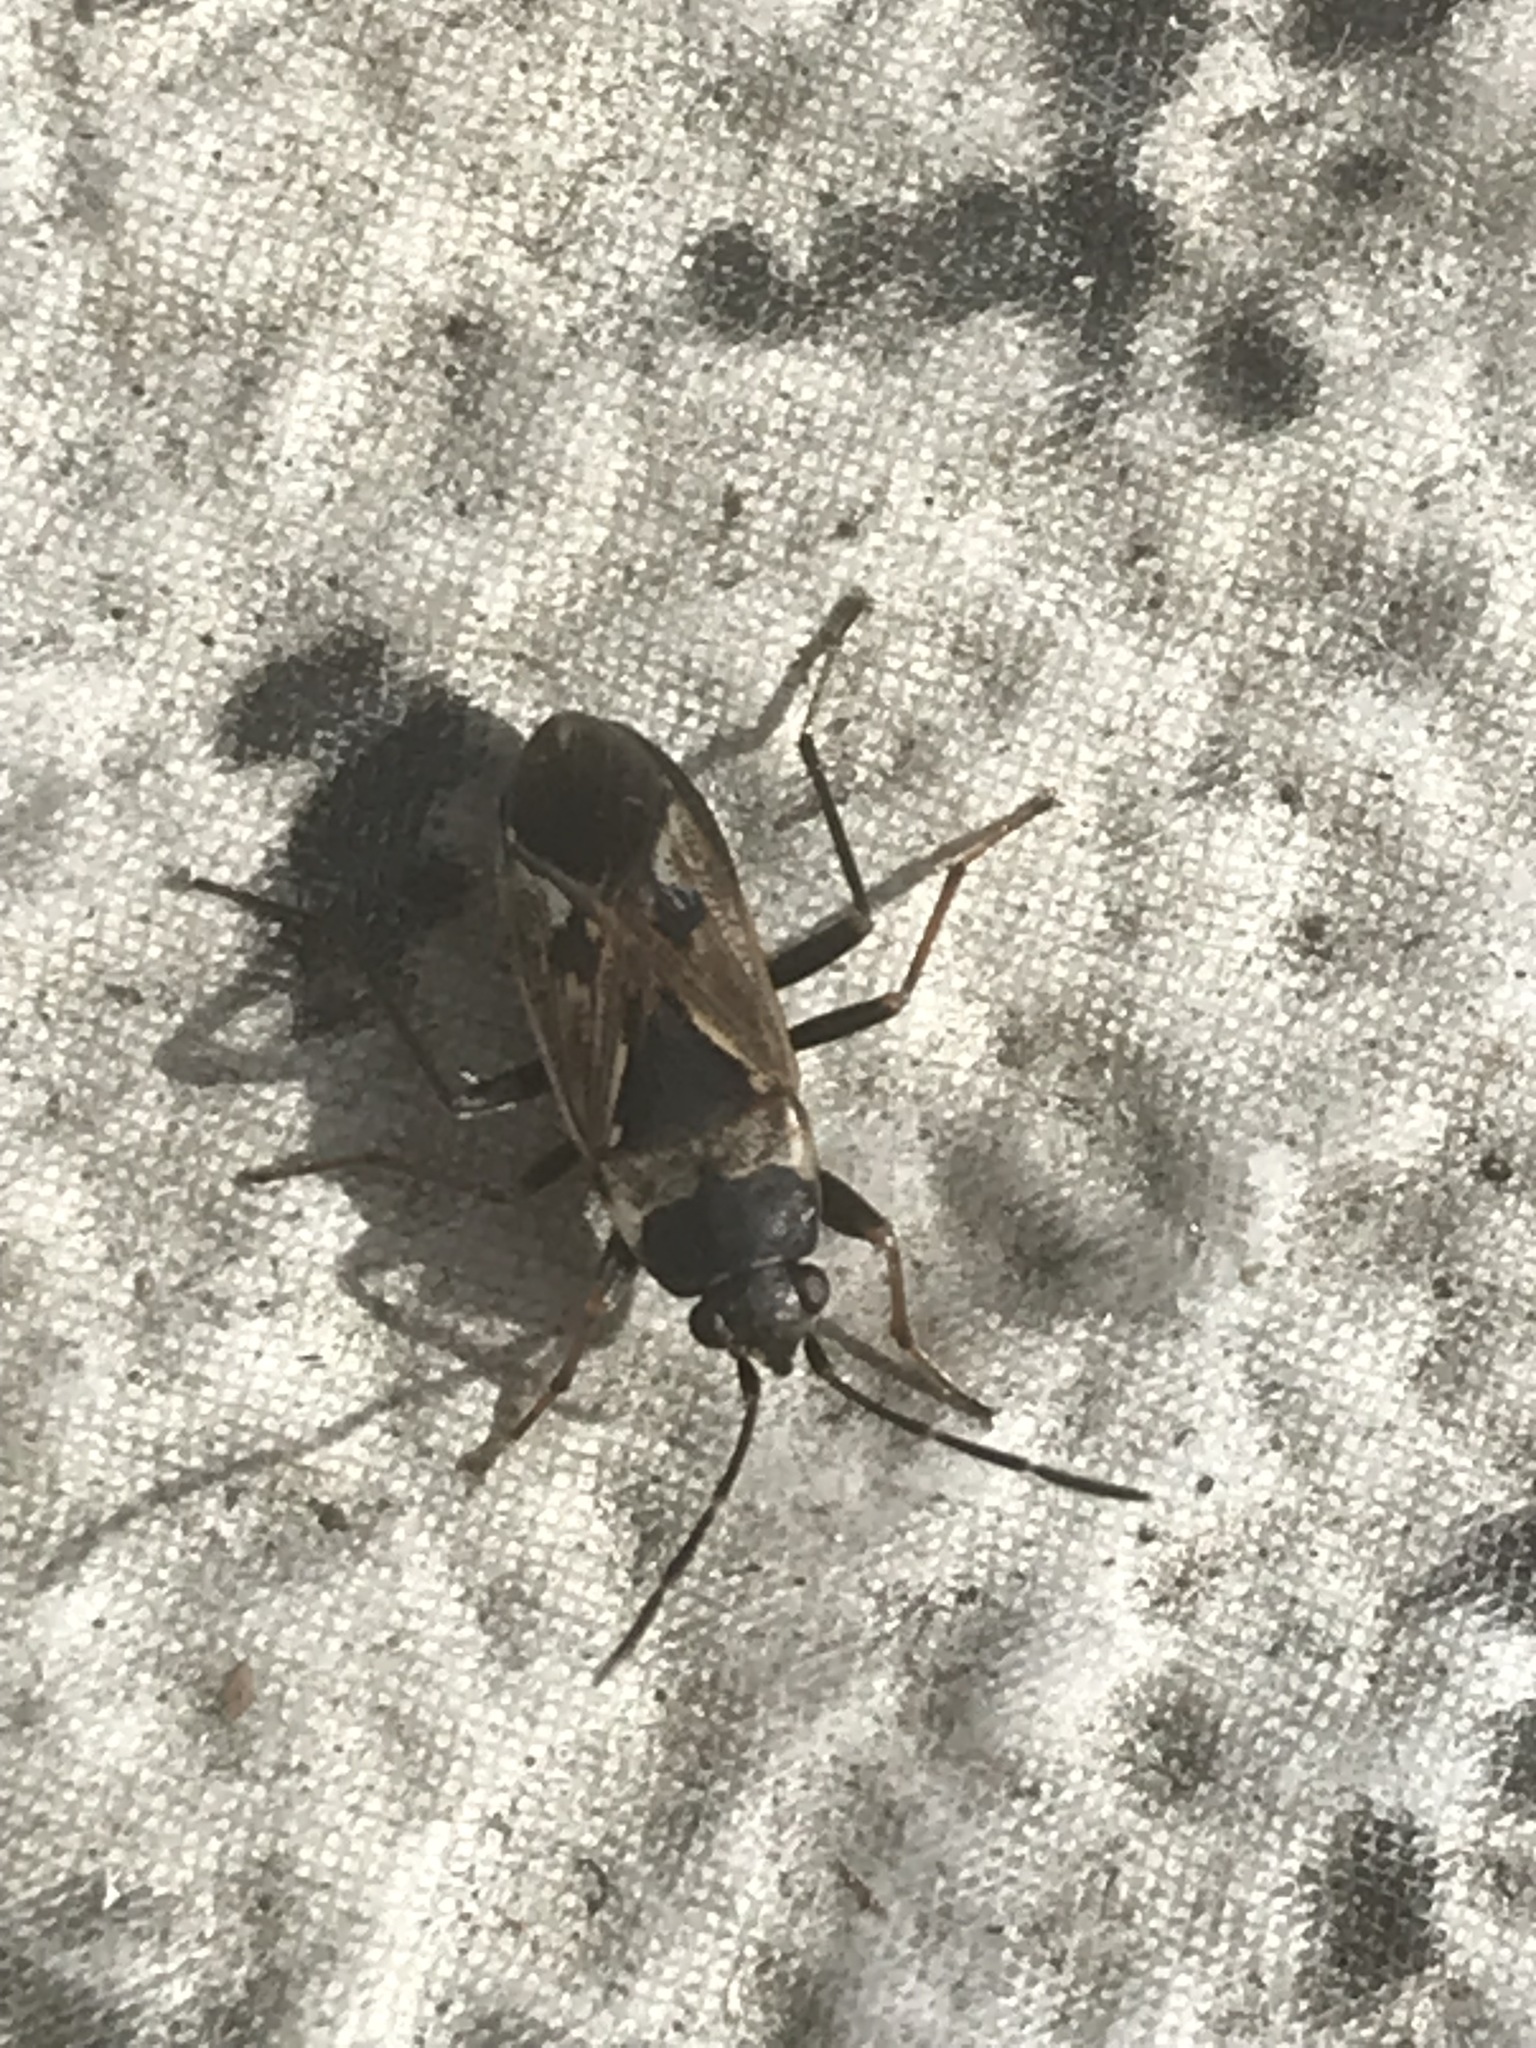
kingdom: Animalia
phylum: Arthropoda
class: Insecta
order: Hemiptera
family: Rhyparochromidae
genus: Rhyparochromus
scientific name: Rhyparochromus vulgaris
